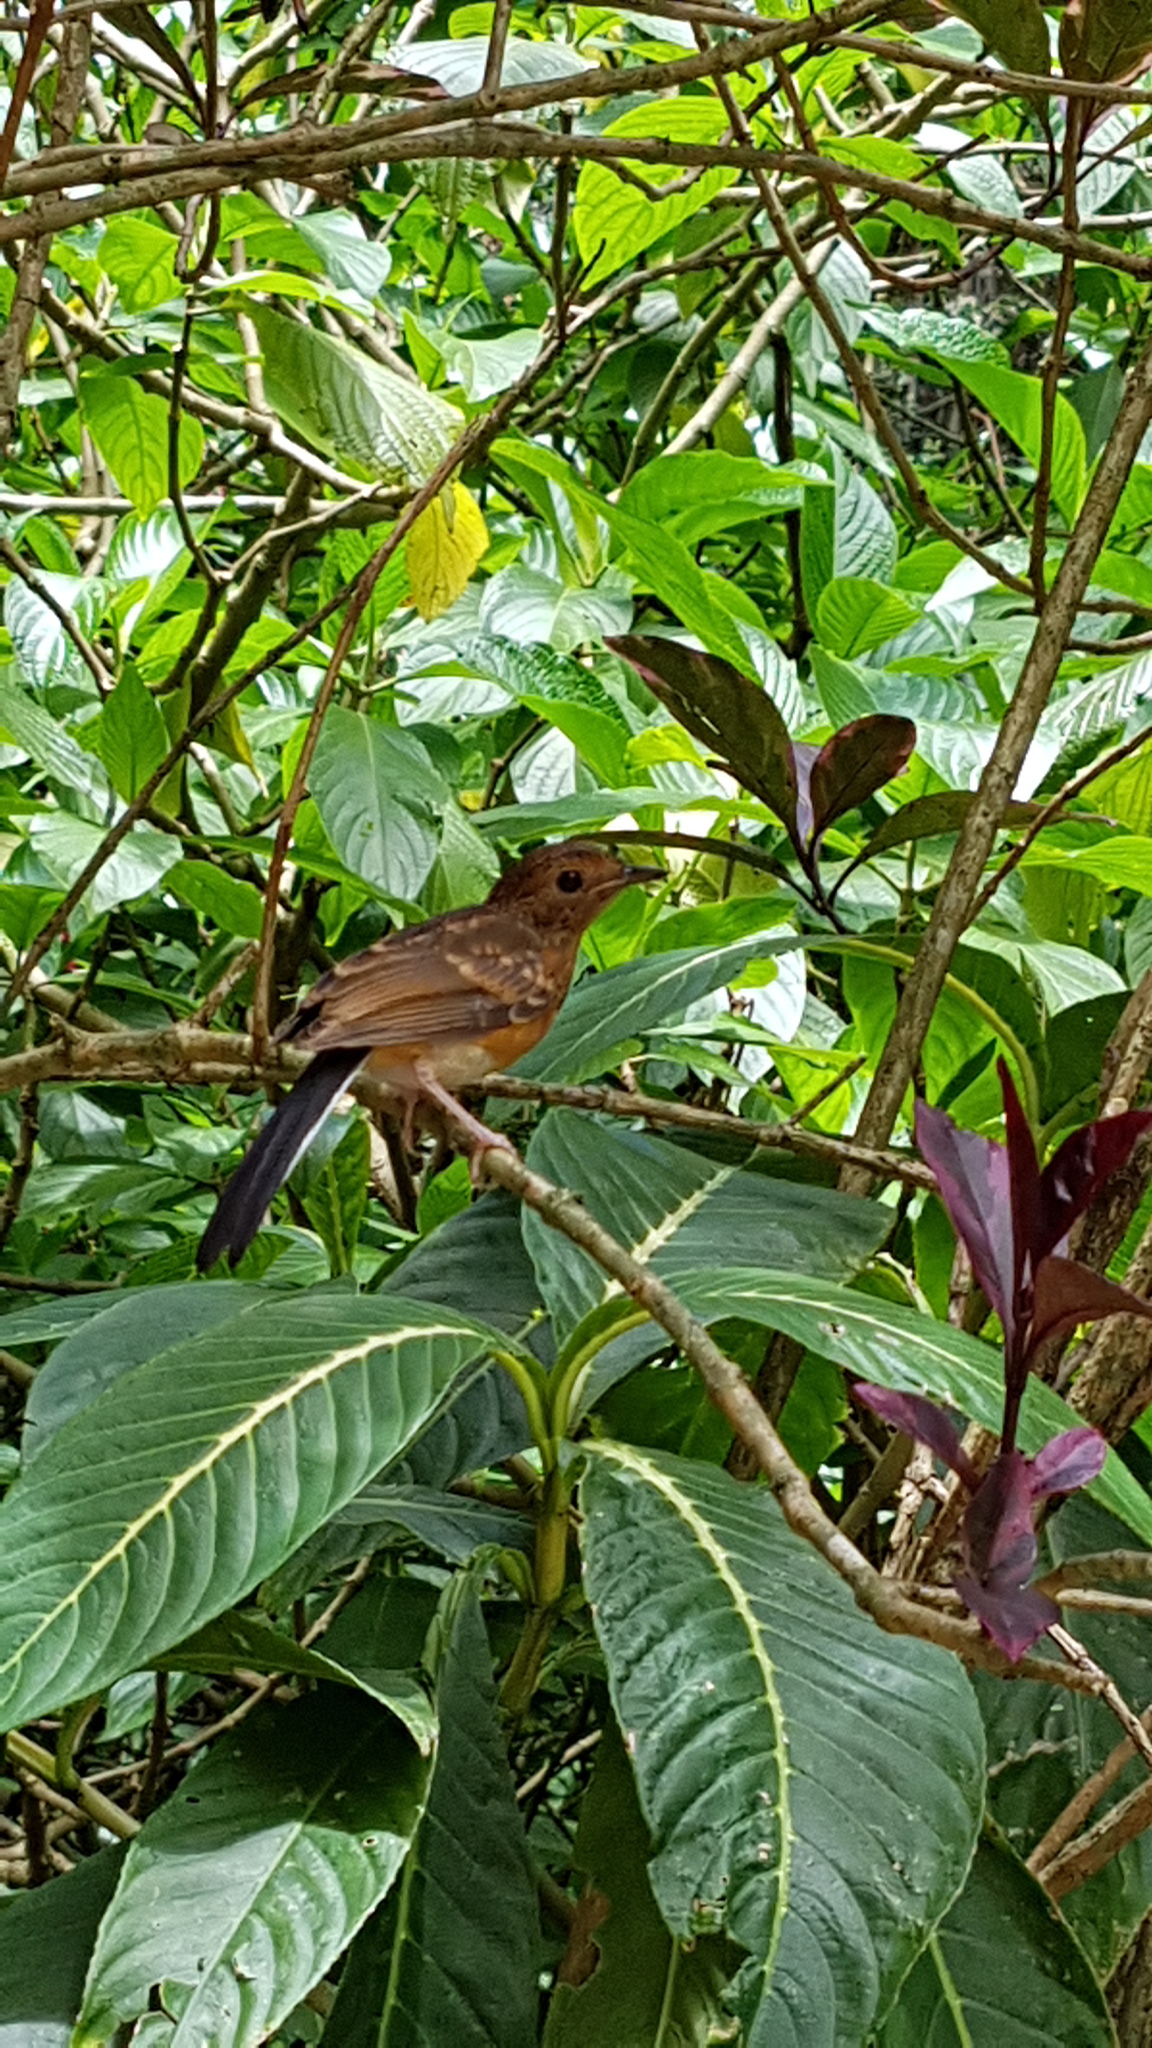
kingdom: Animalia
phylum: Chordata
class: Aves
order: Passeriformes
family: Muscicapidae
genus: Copsychus
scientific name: Copsychus malabaricus
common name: White-rumped shama
